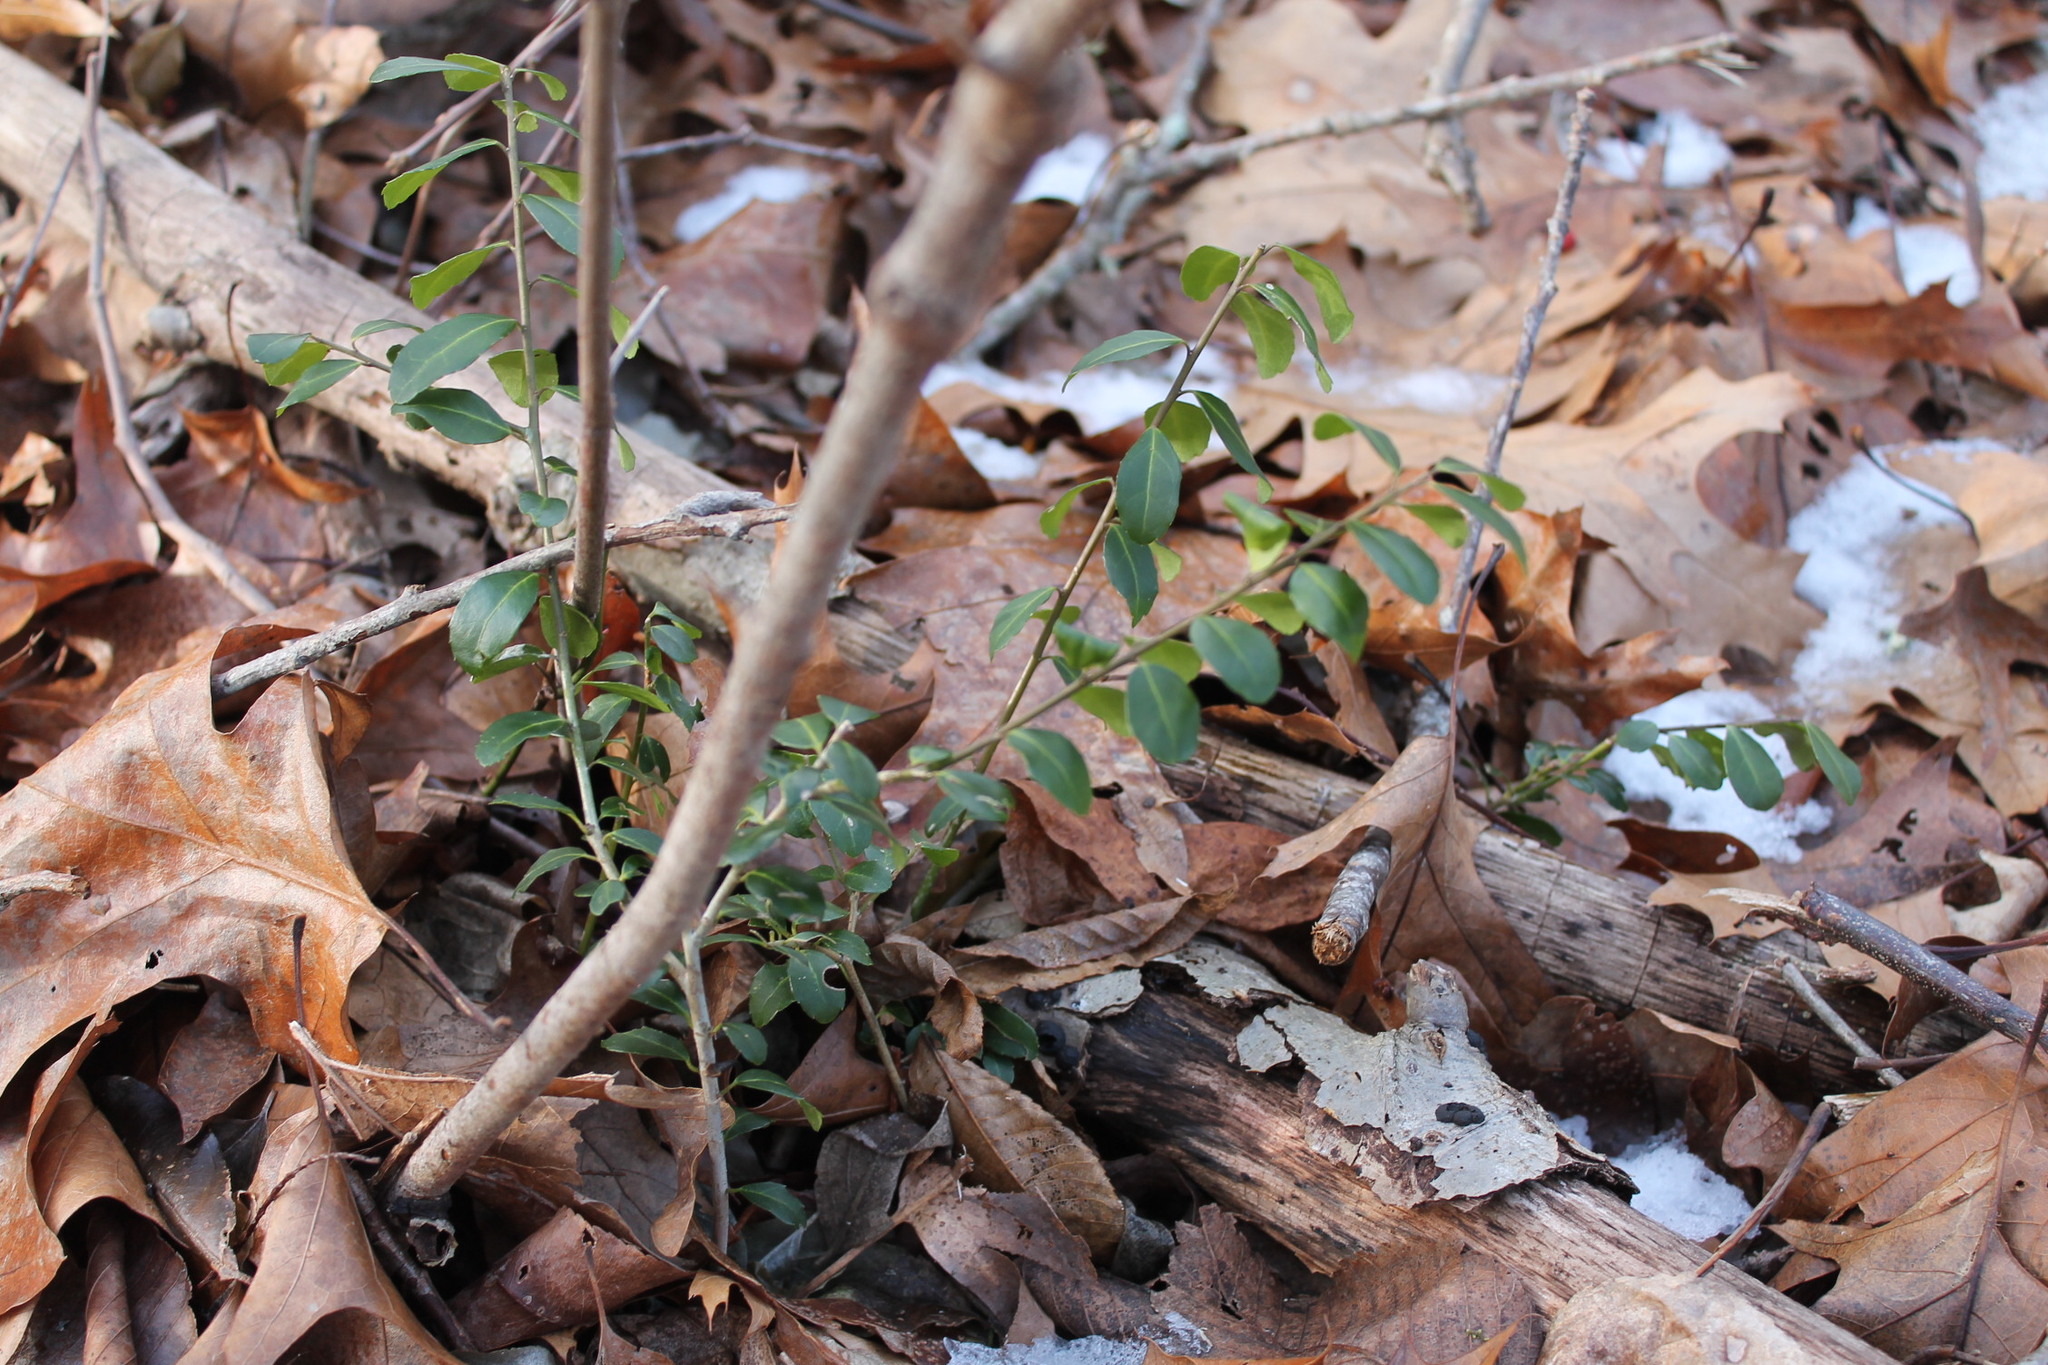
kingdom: Plantae
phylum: Tracheophyta
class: Magnoliopsida
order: Aquifoliales
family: Aquifoliaceae
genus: Ilex
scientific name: Ilex crenata
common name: Japanese holly
